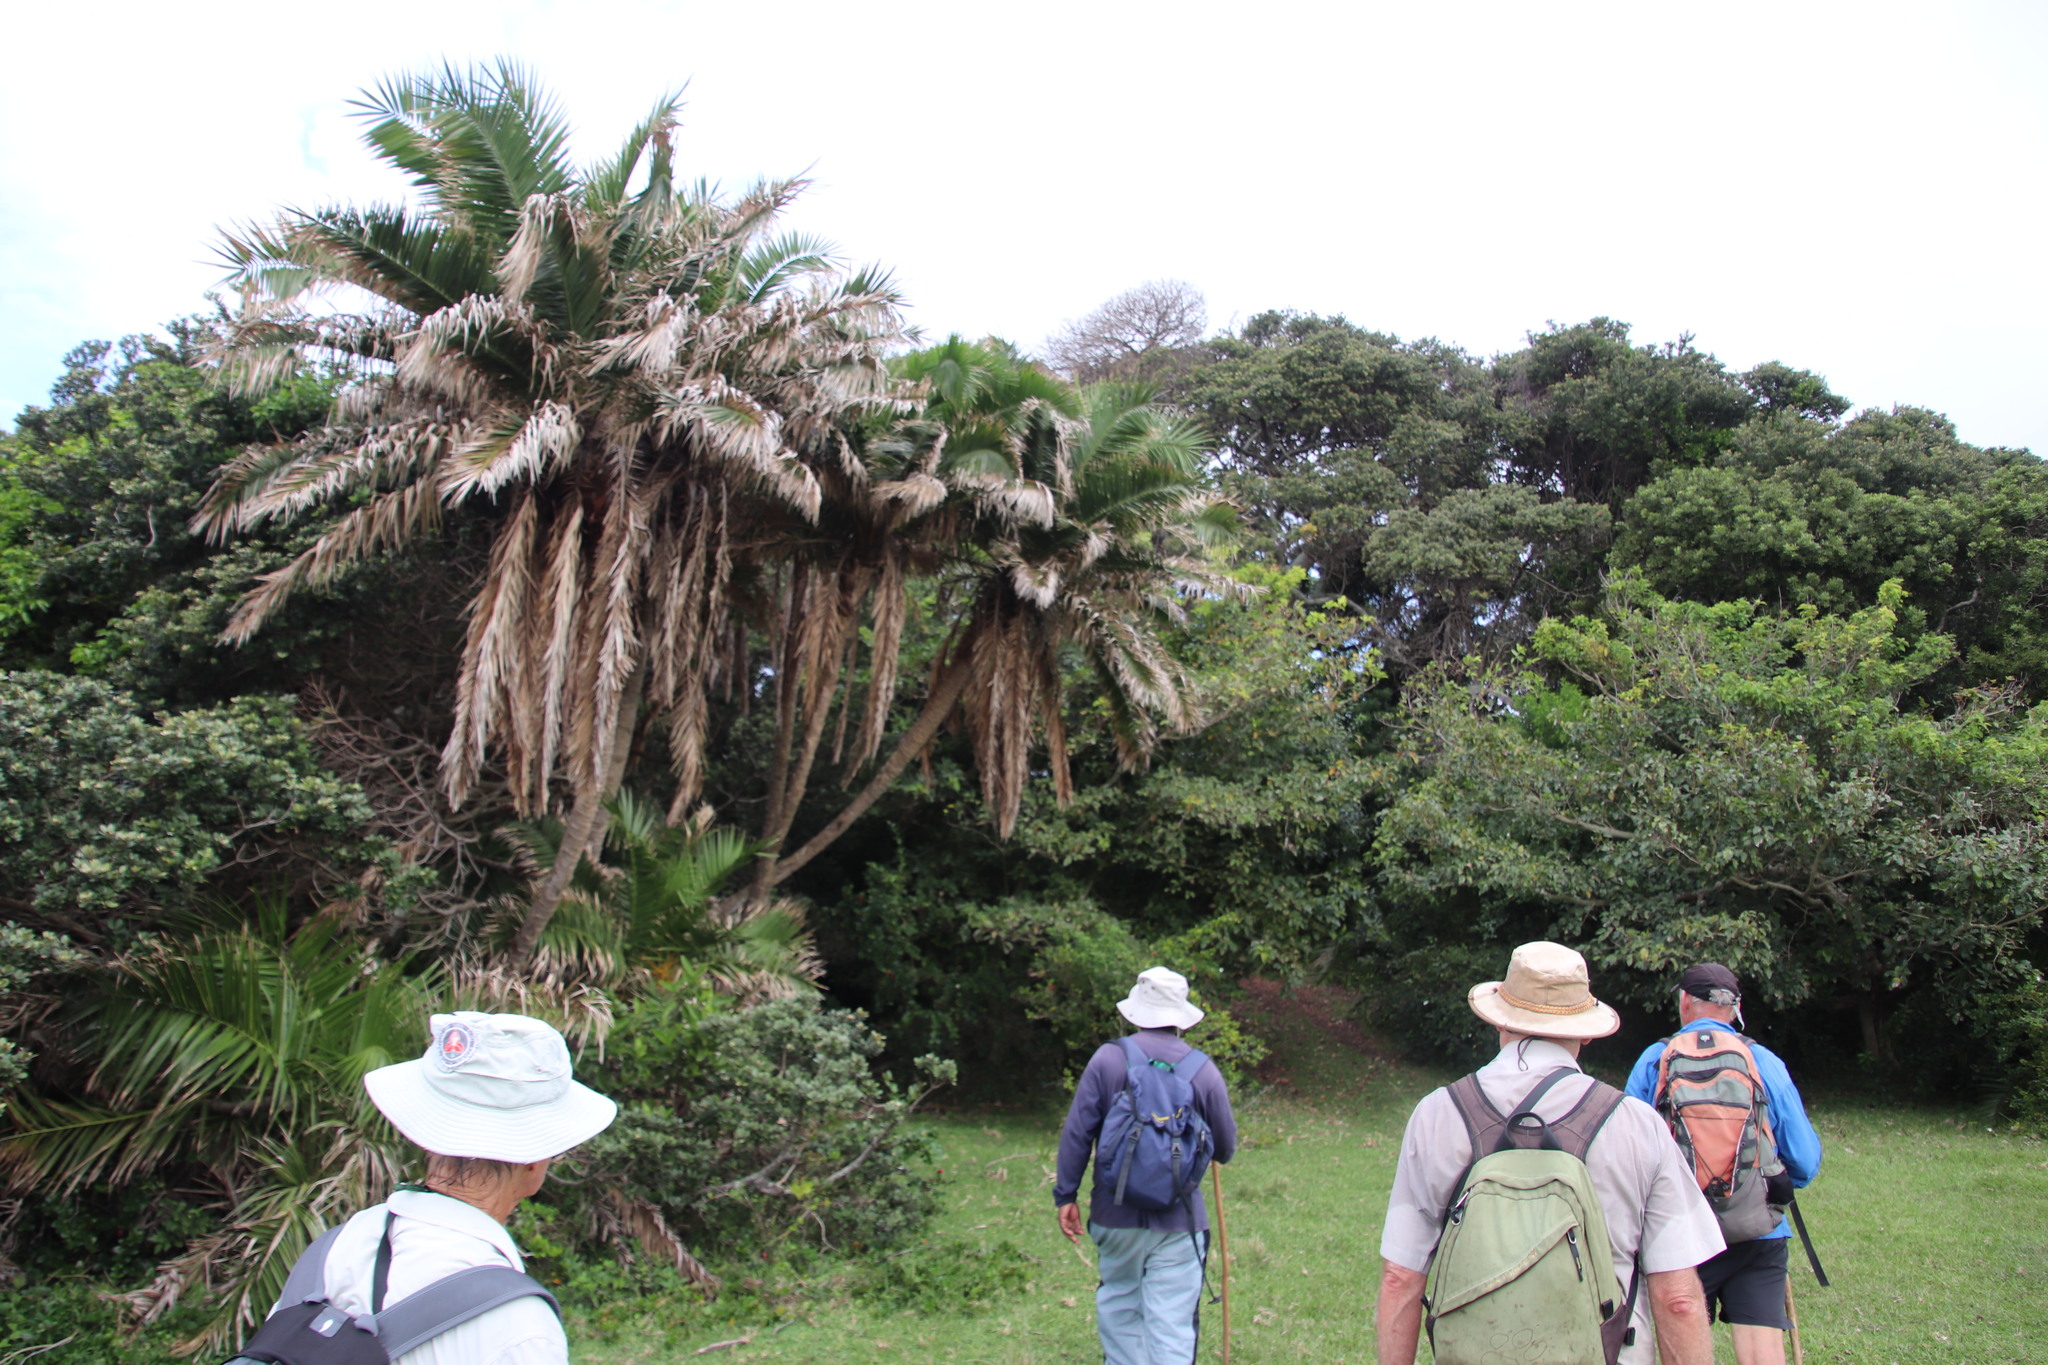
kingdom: Plantae
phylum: Tracheophyta
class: Liliopsida
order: Arecales
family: Arecaceae
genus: Phoenix
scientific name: Phoenix reclinata
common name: Senegal date palm
